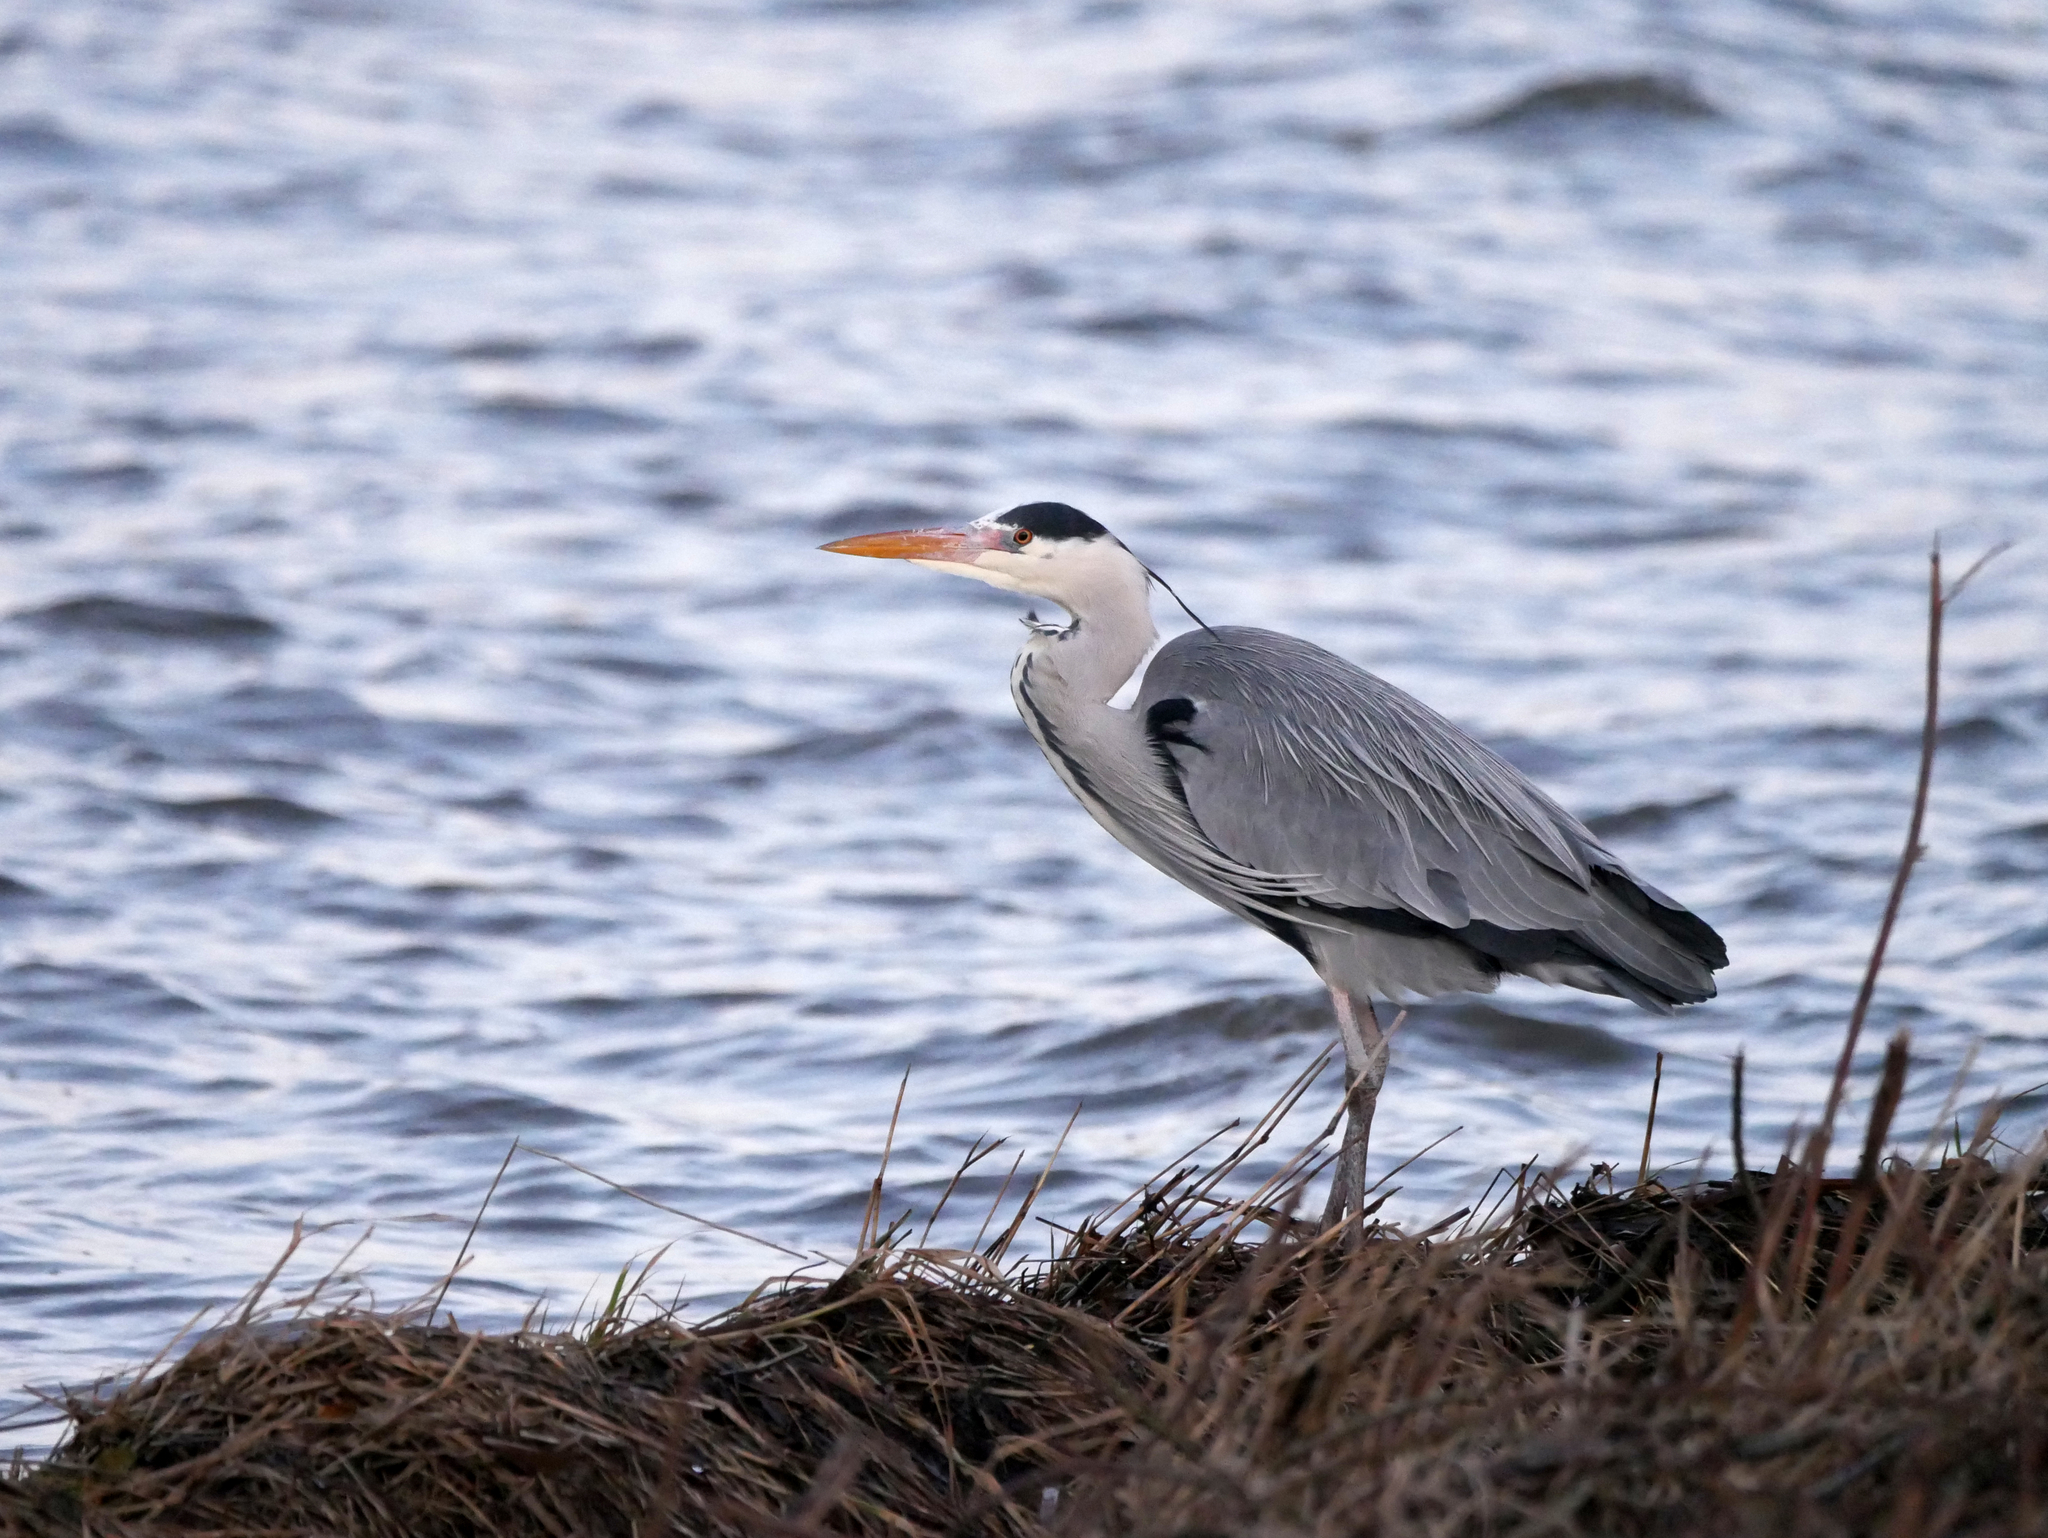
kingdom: Animalia
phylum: Chordata
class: Aves
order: Pelecaniformes
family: Ardeidae
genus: Ardea
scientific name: Ardea cinerea
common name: Grey heron
